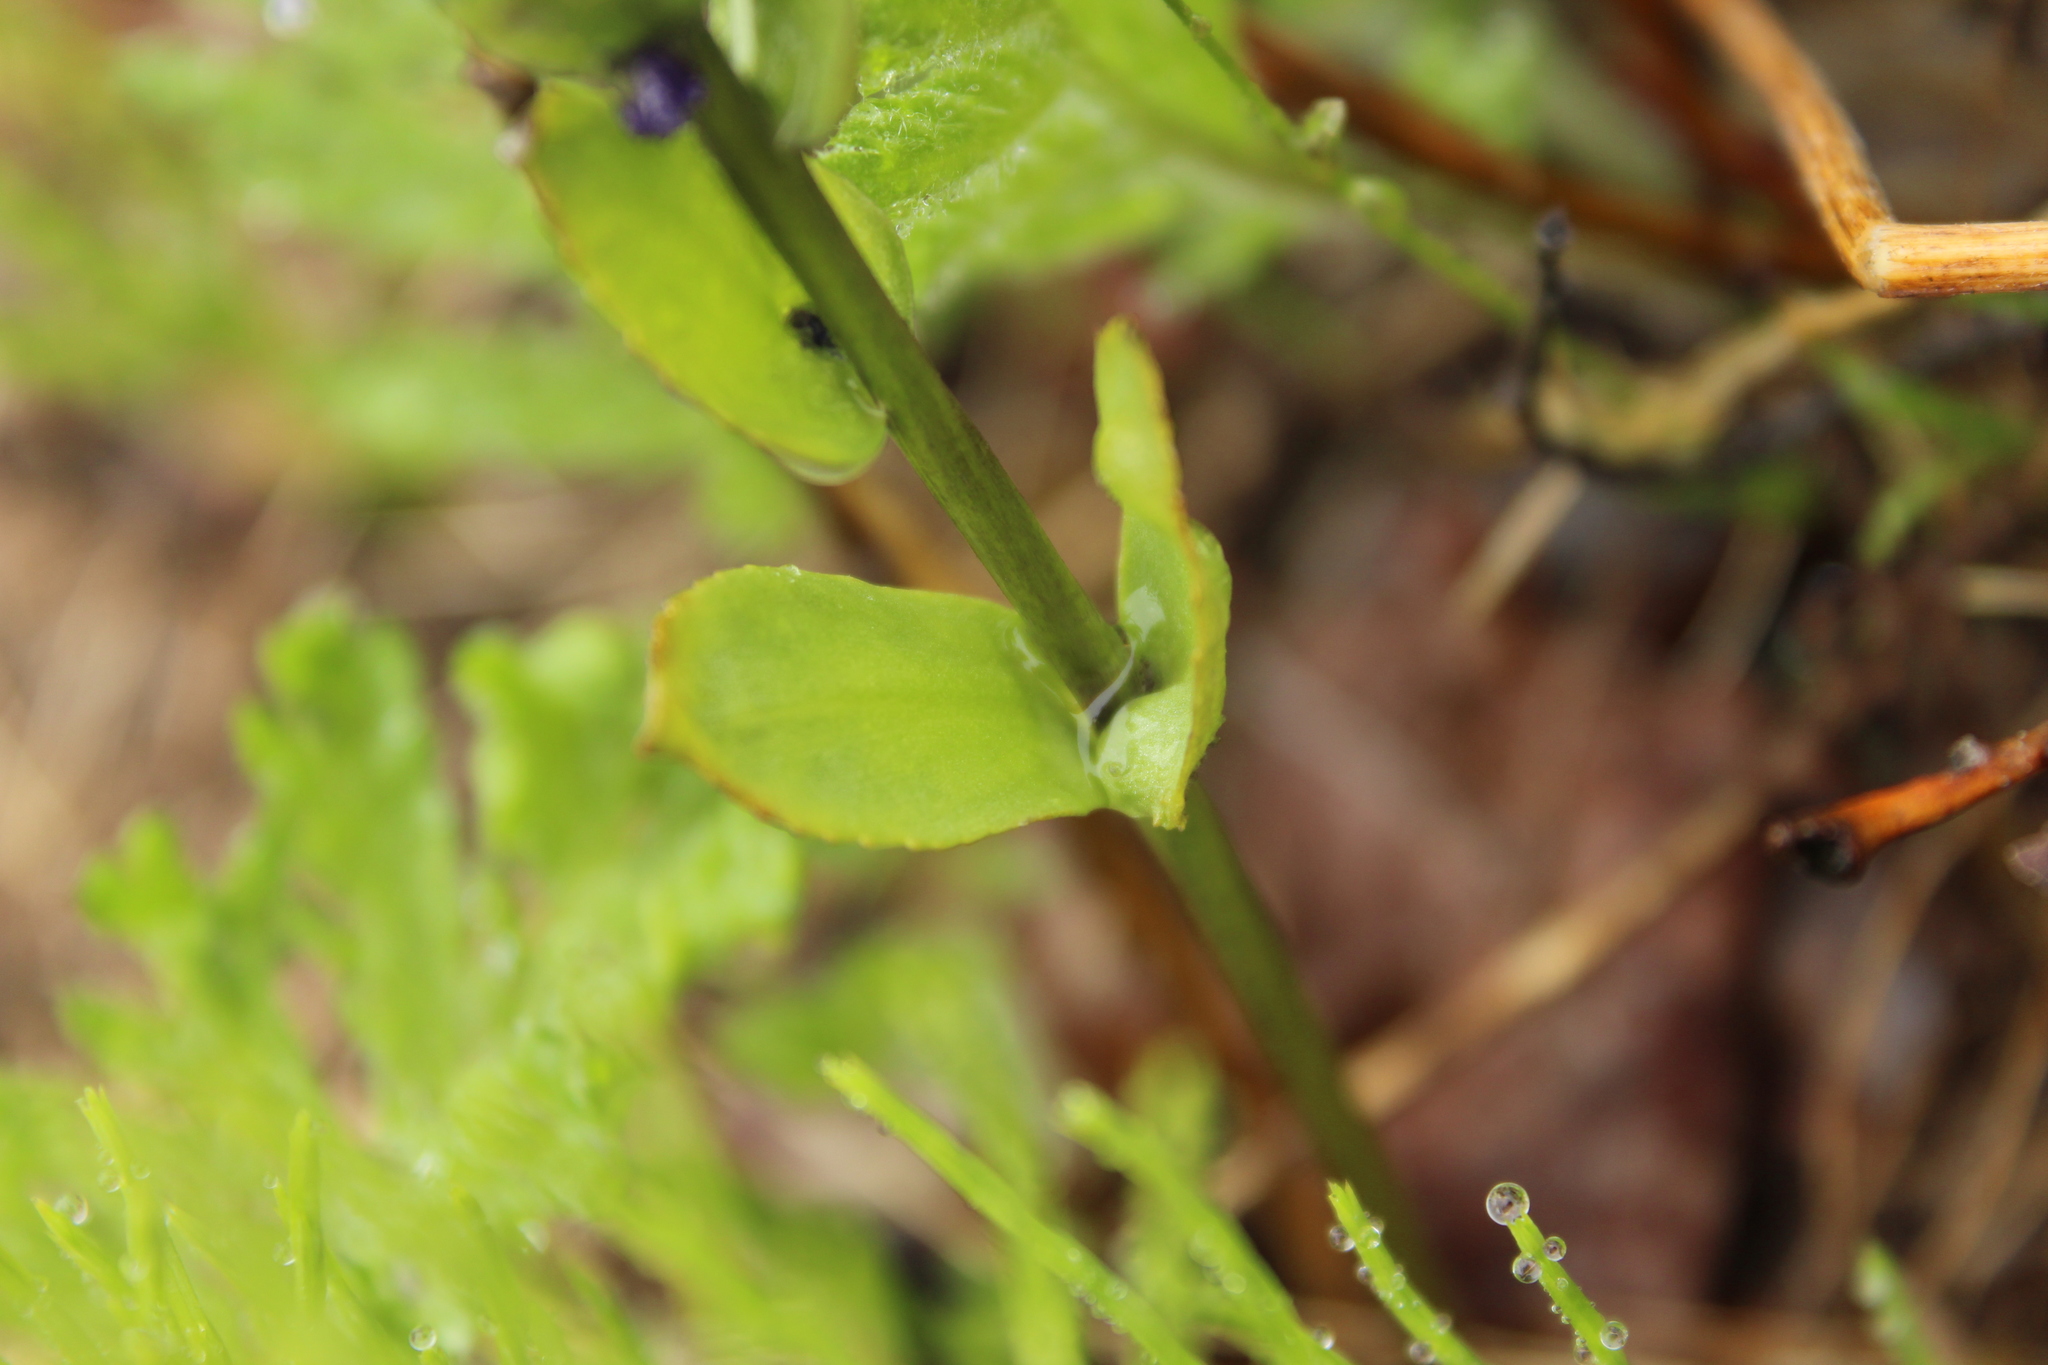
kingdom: Plantae
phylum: Tracheophyta
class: Magnoliopsida
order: Lamiales
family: Plantaginaceae
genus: Lagotis
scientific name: Lagotis glauca
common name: Glaucous weaselsnout
